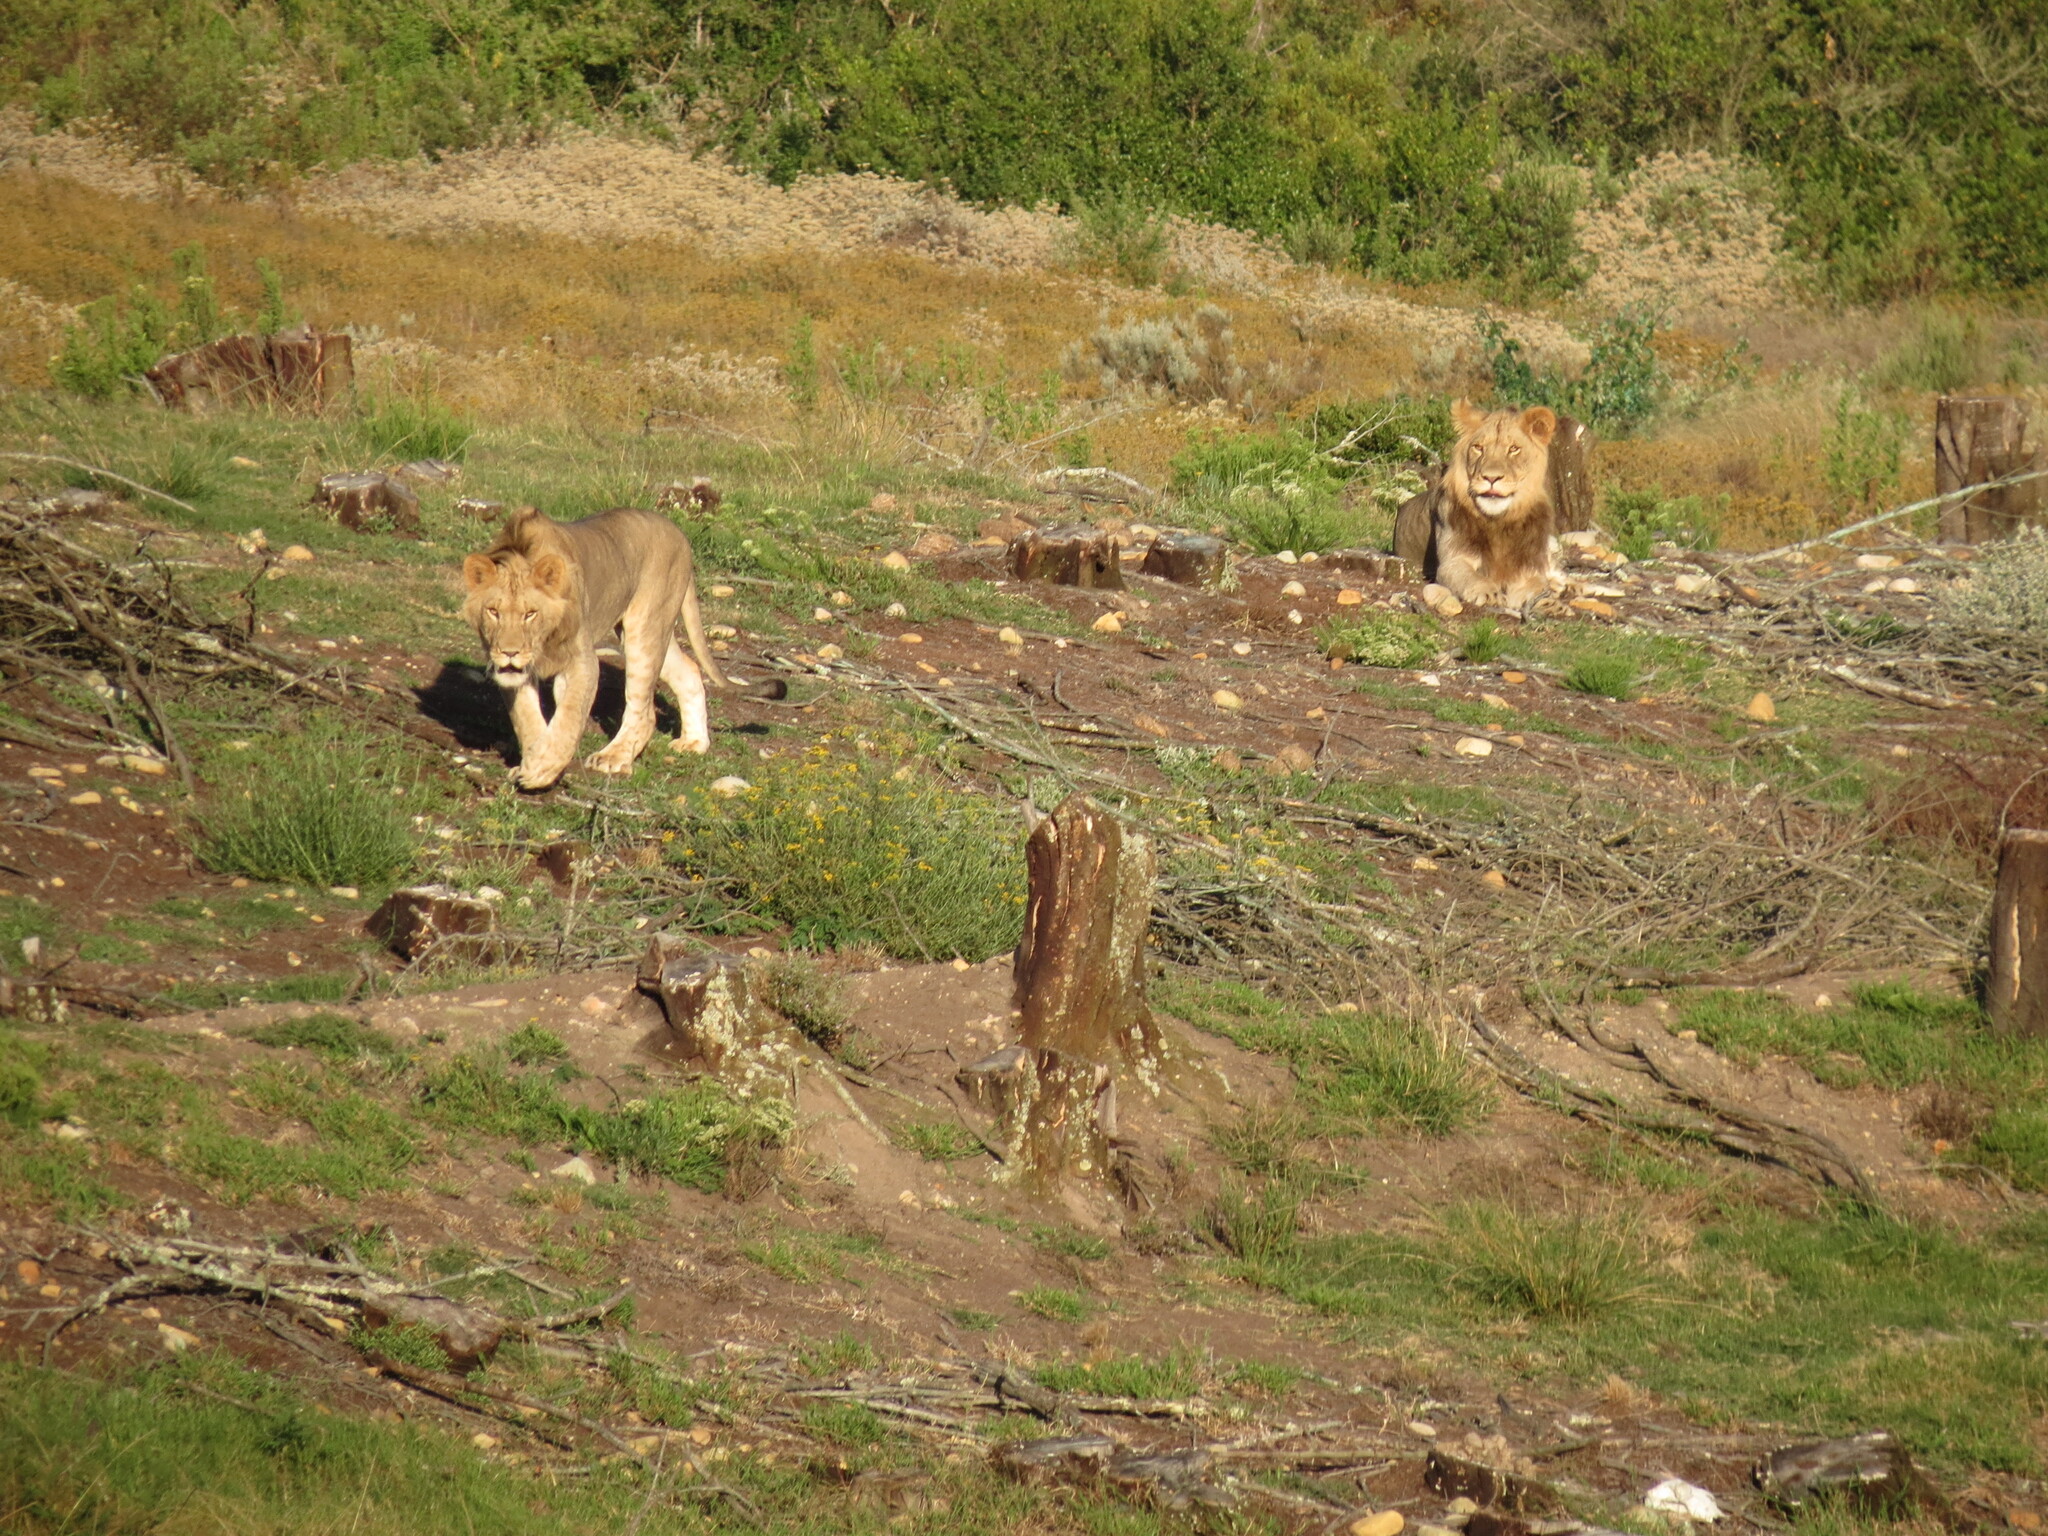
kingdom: Animalia
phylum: Chordata
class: Mammalia
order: Carnivora
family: Felidae
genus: Panthera
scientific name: Panthera leo
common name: Lion
